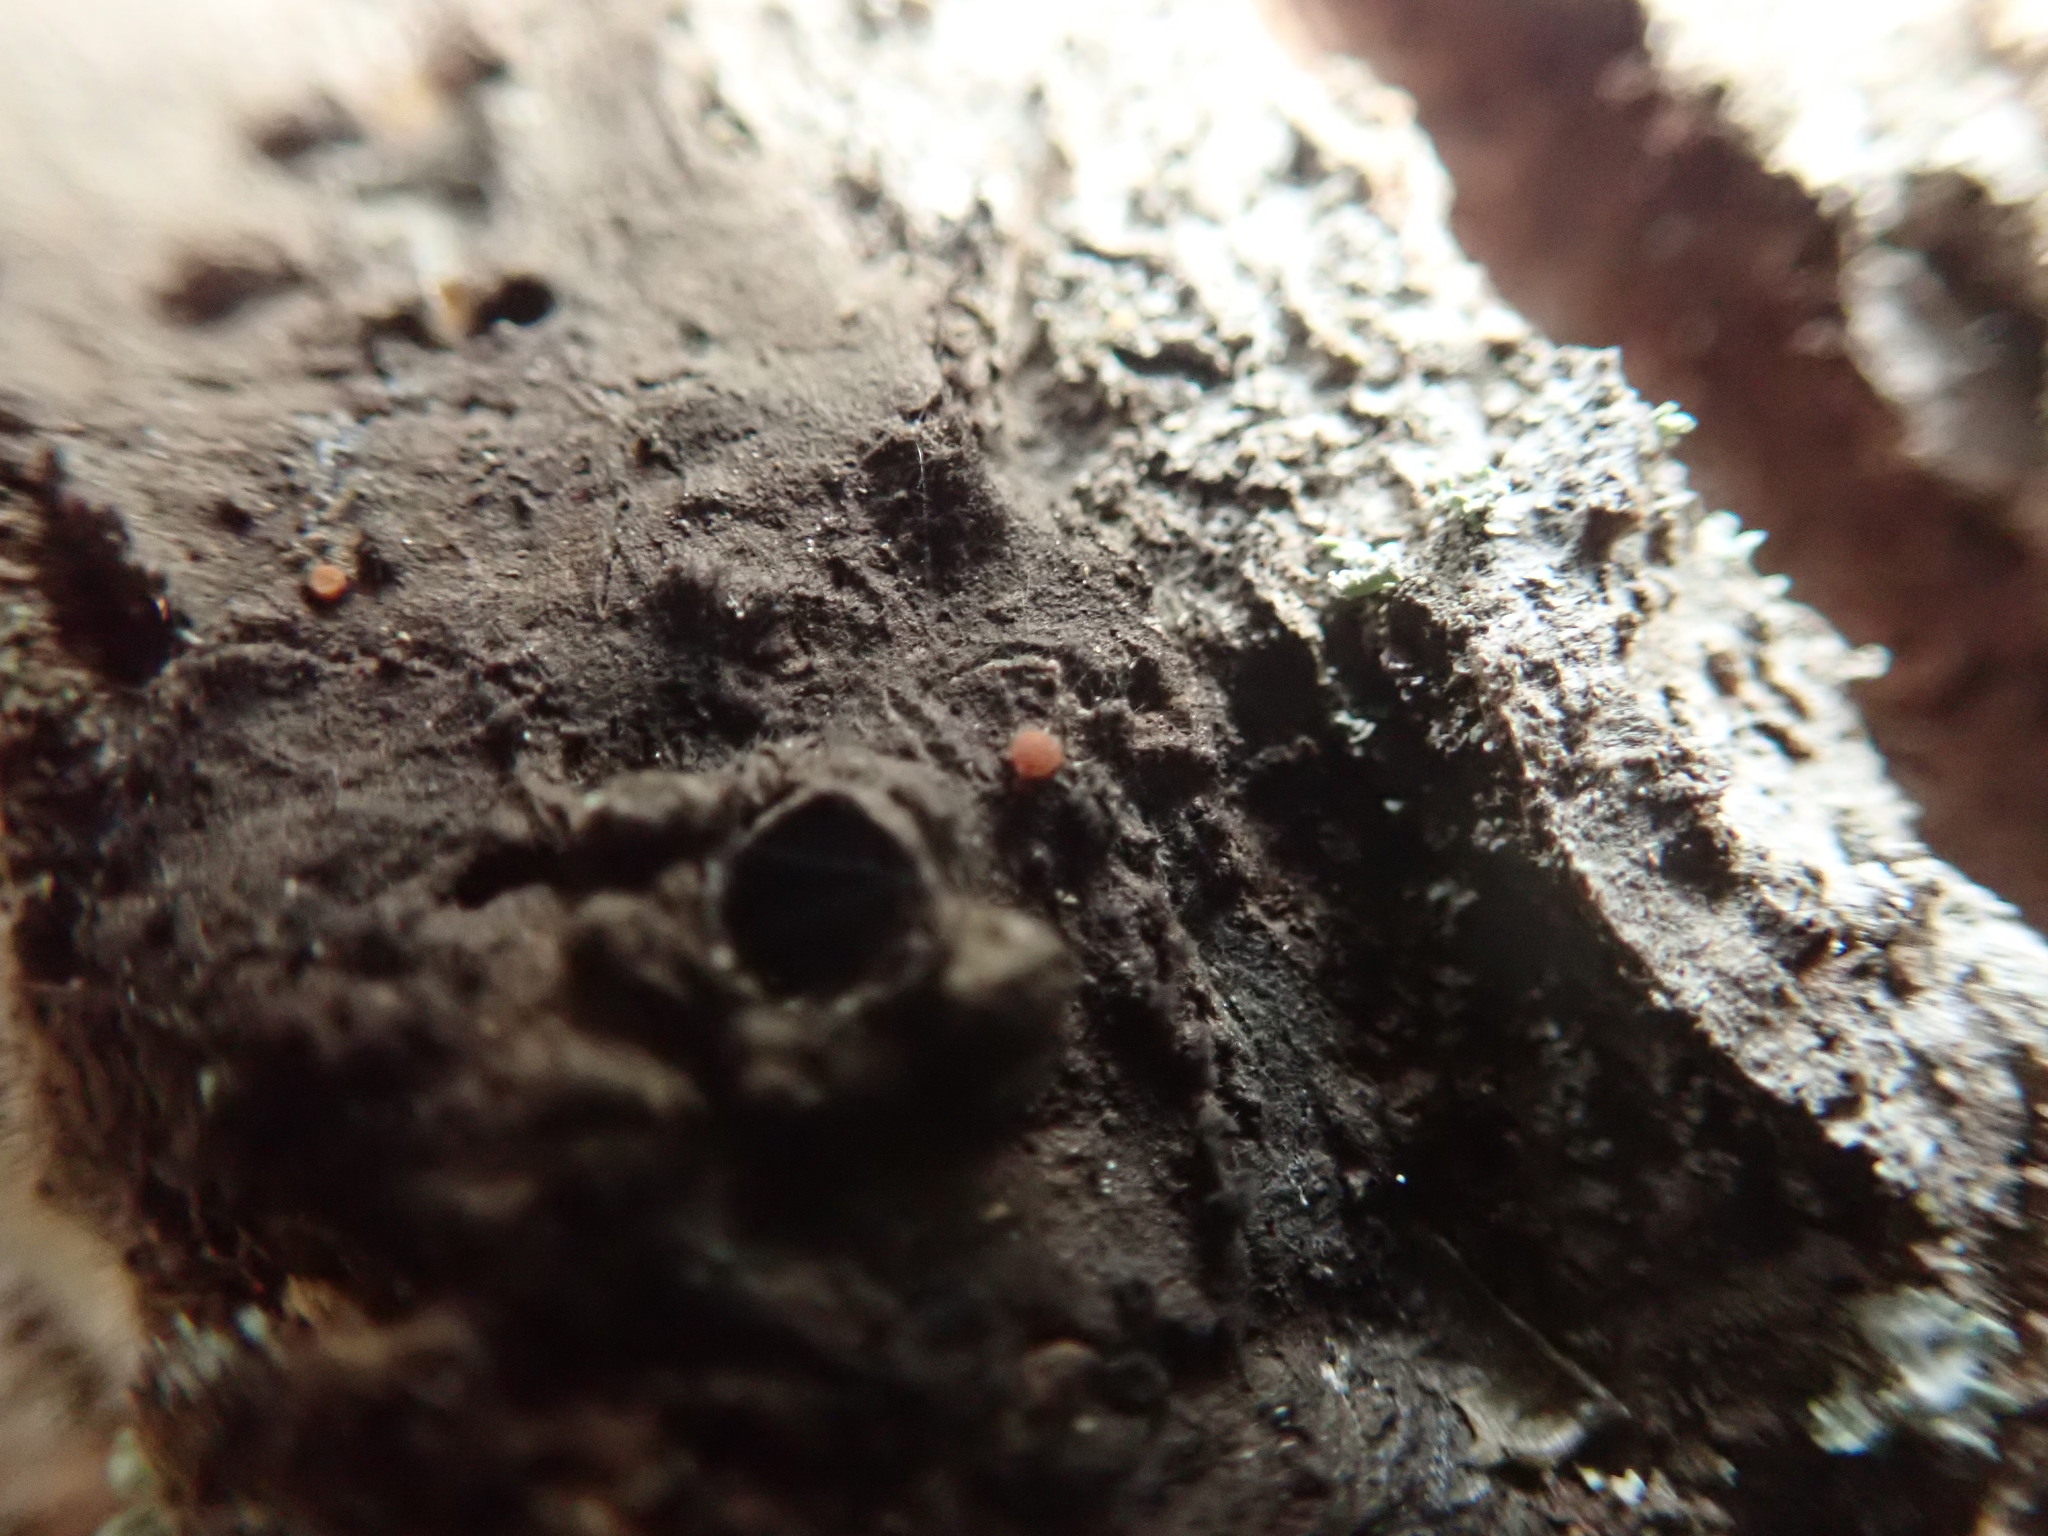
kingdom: Fungi
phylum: Ascomycota
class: Sareomycetes
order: Sareales
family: Sareaceae
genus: Sarea
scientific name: Sarea resinae
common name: Sarea lichen
